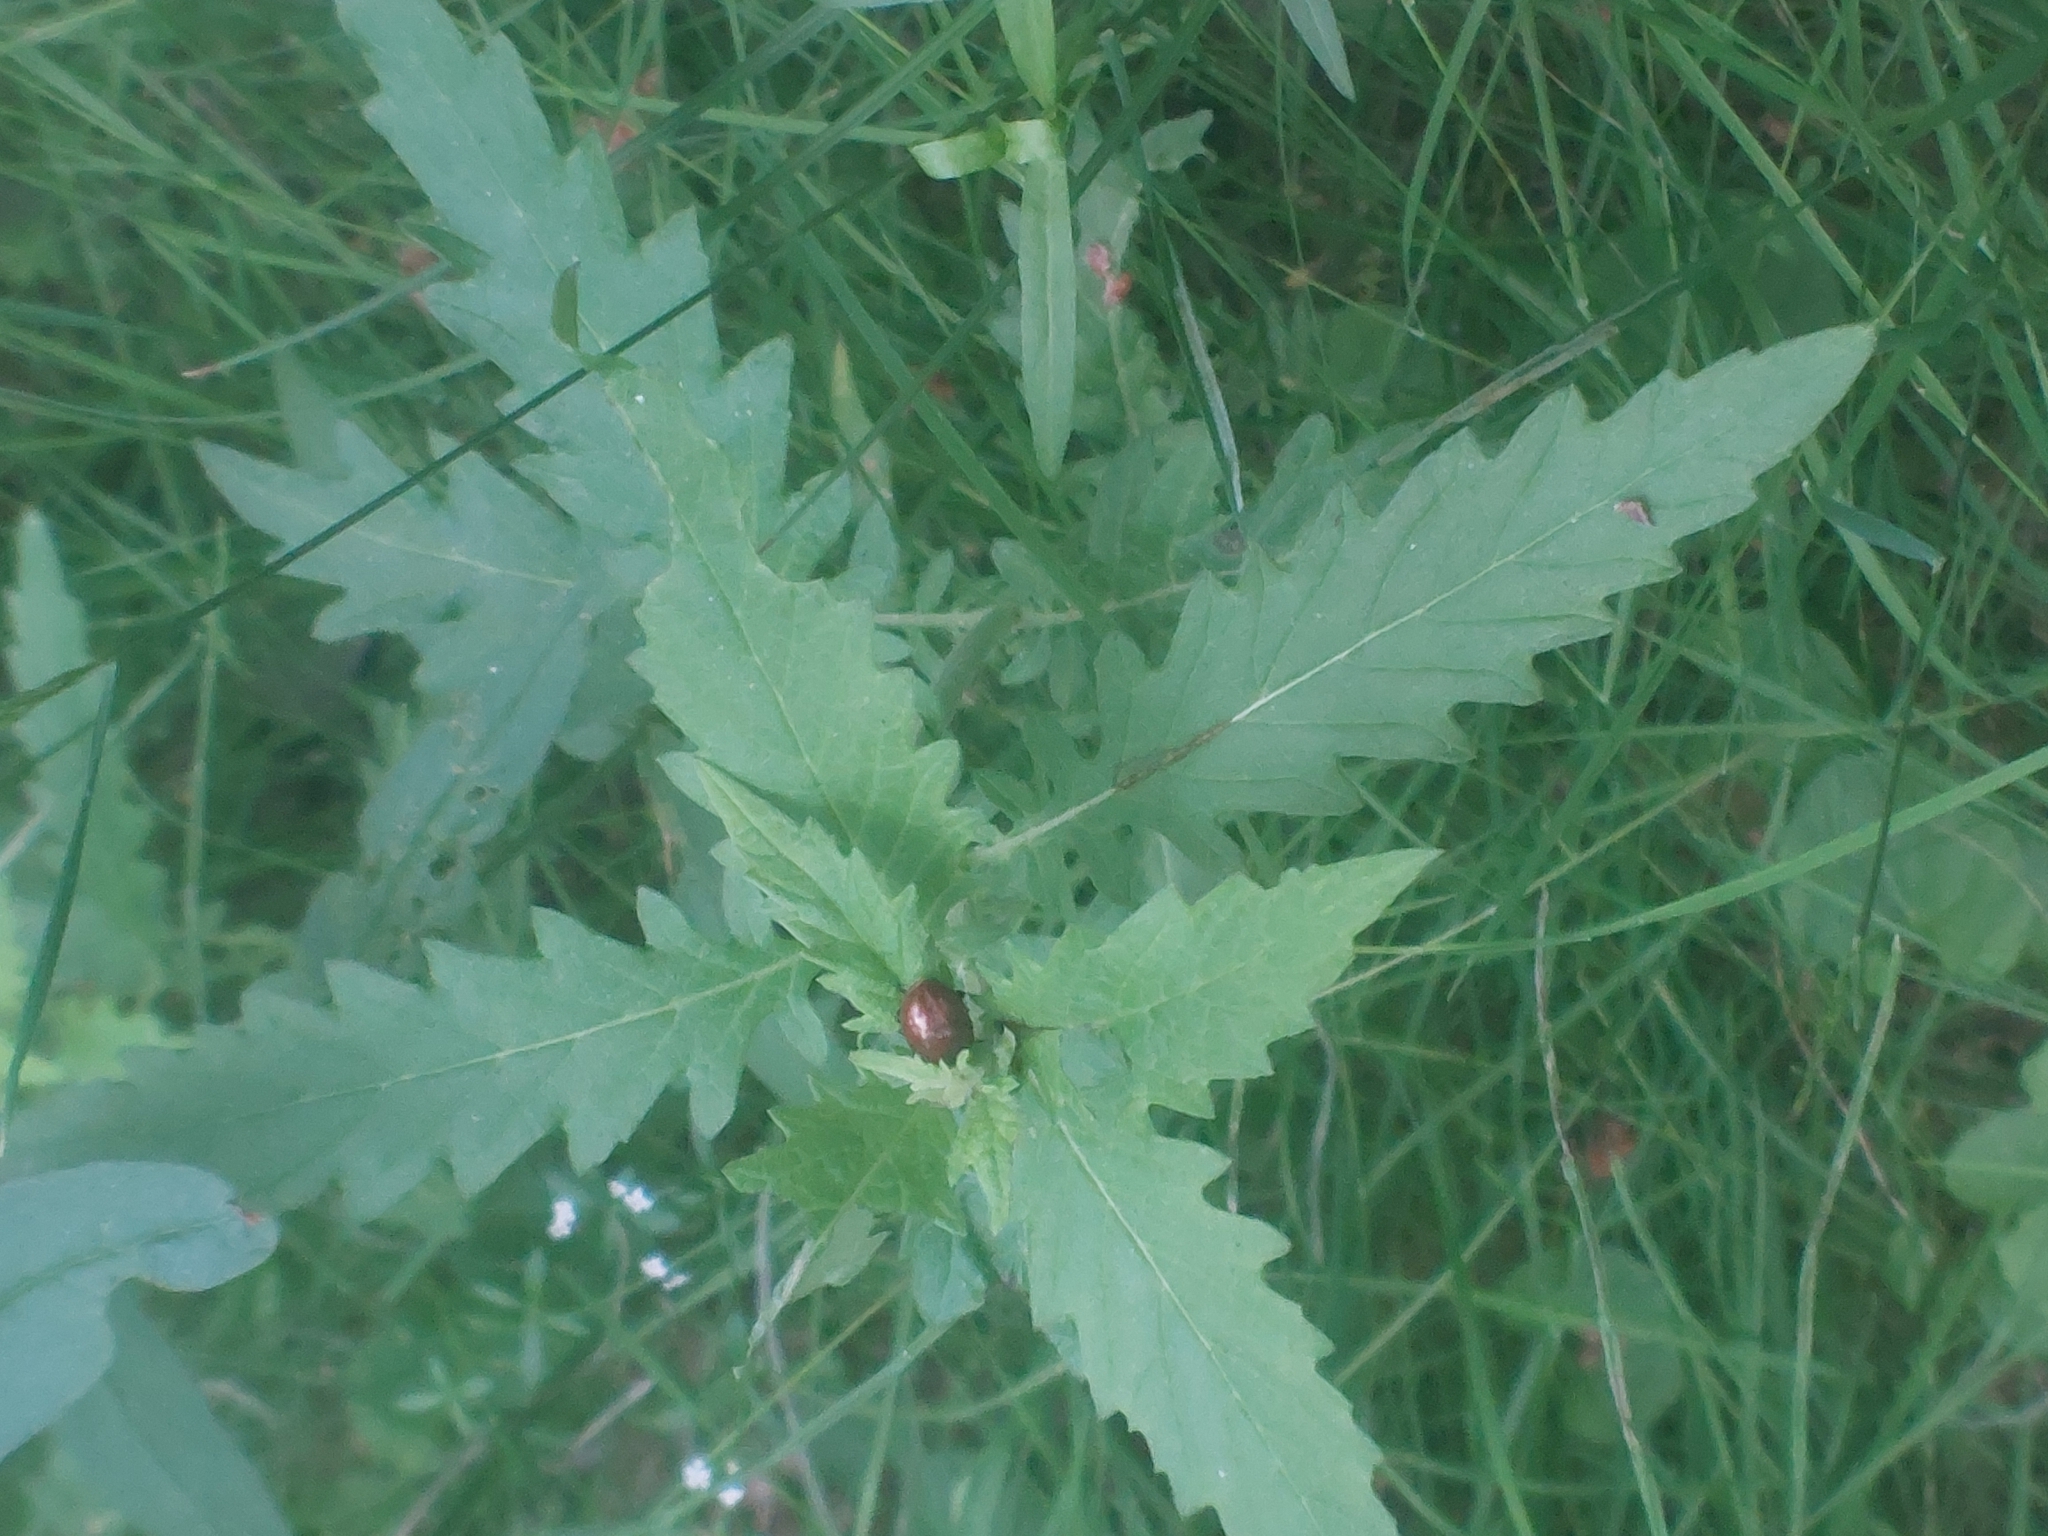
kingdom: Plantae
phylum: Tracheophyta
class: Magnoliopsida
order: Lamiales
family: Lamiaceae
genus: Lycopus
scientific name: Lycopus europaeus
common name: European bugleweed
